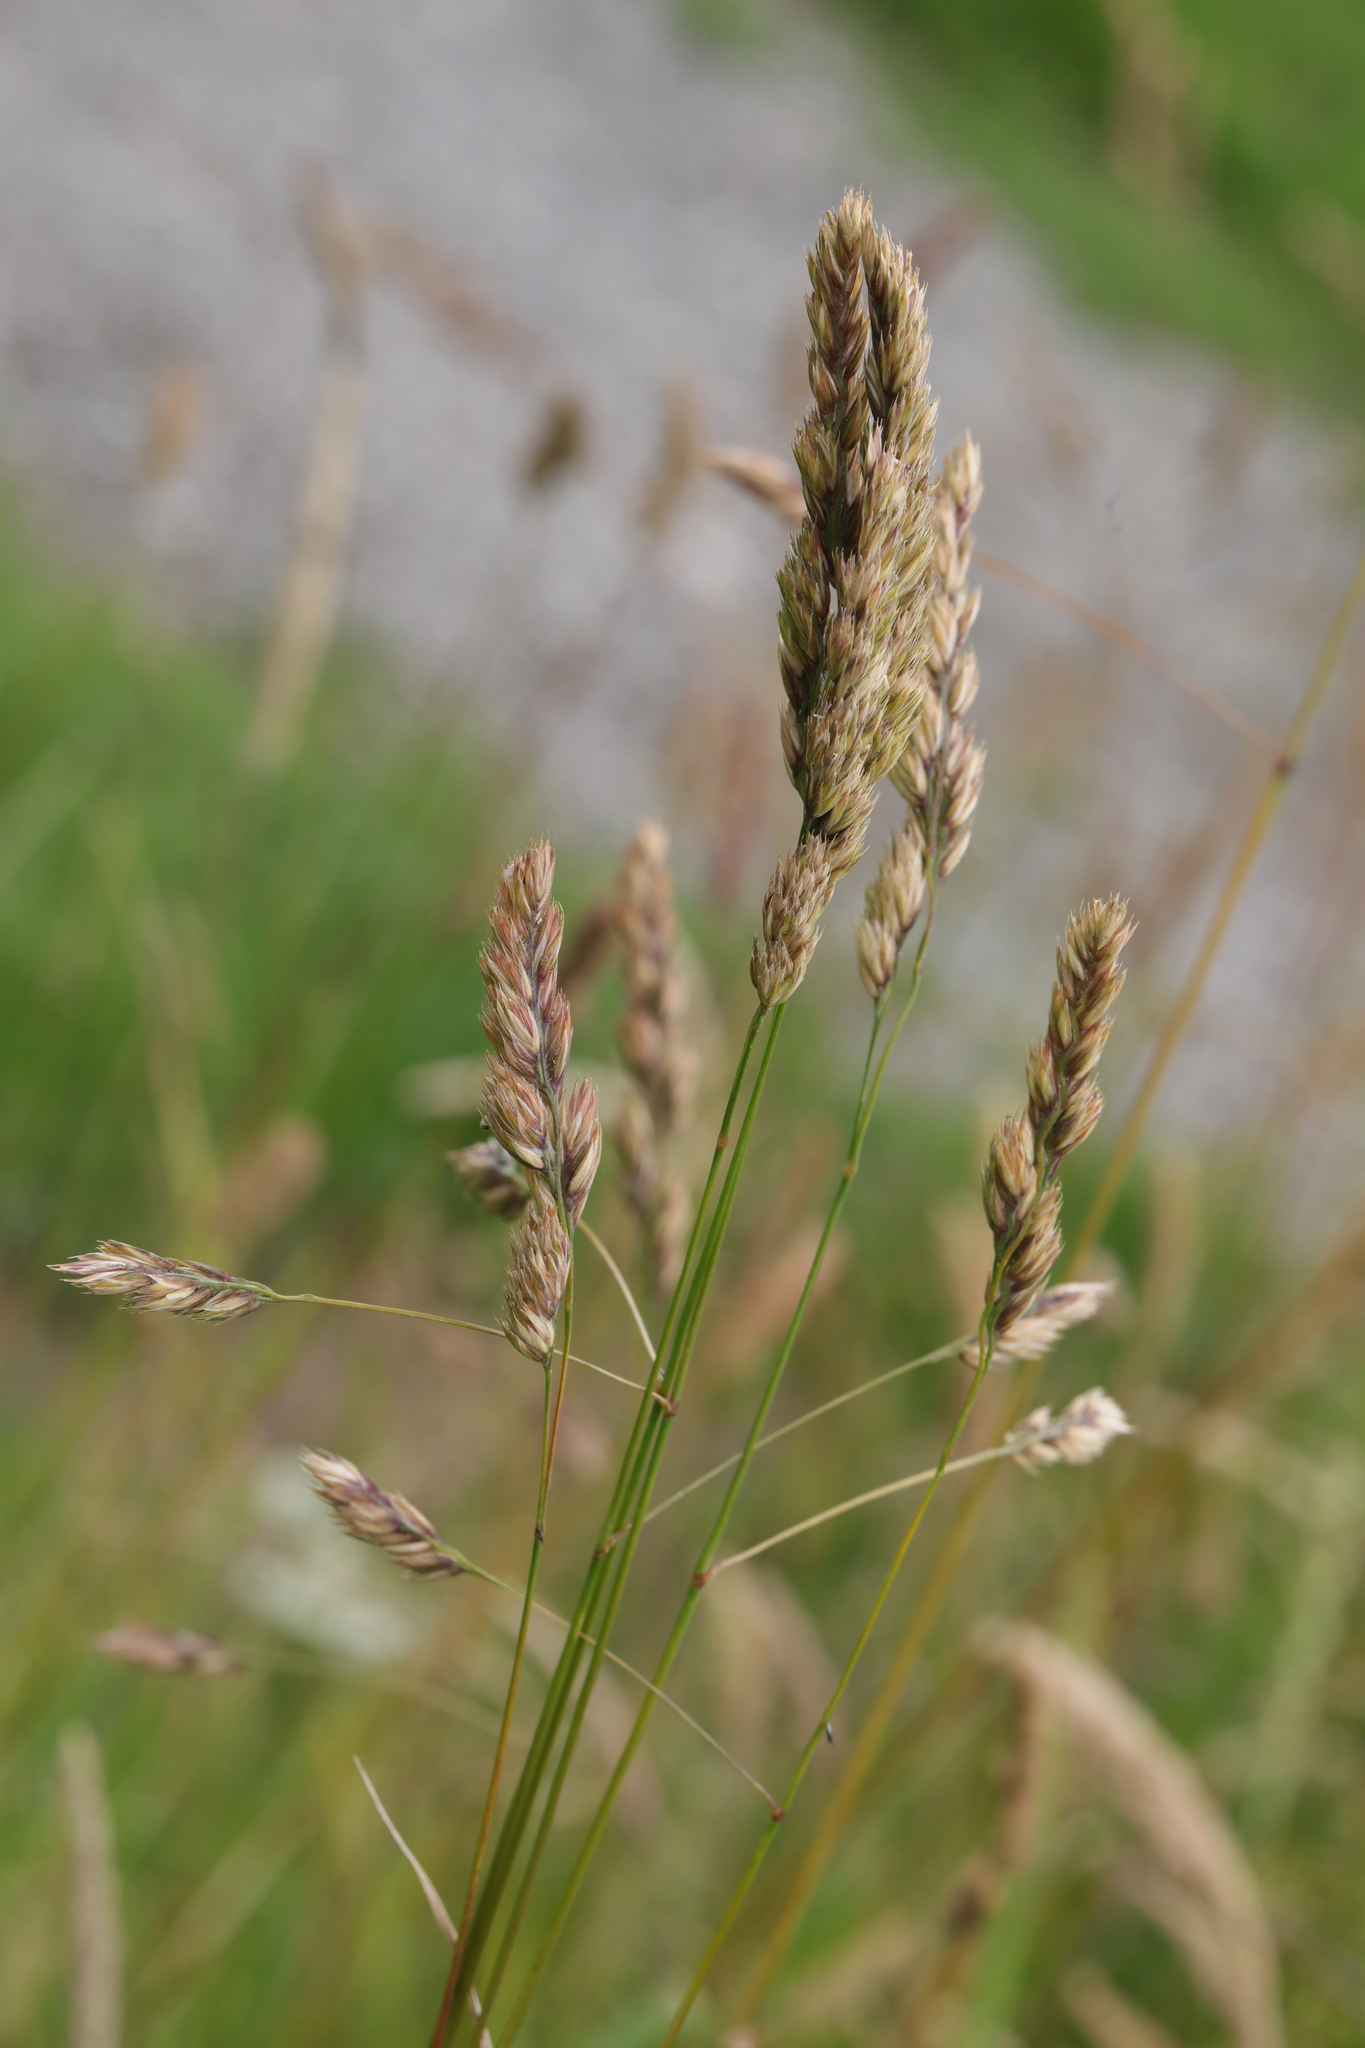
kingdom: Plantae
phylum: Tracheophyta
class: Liliopsida
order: Poales
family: Poaceae
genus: Dactylis
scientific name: Dactylis glomerata
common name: Orchardgrass
